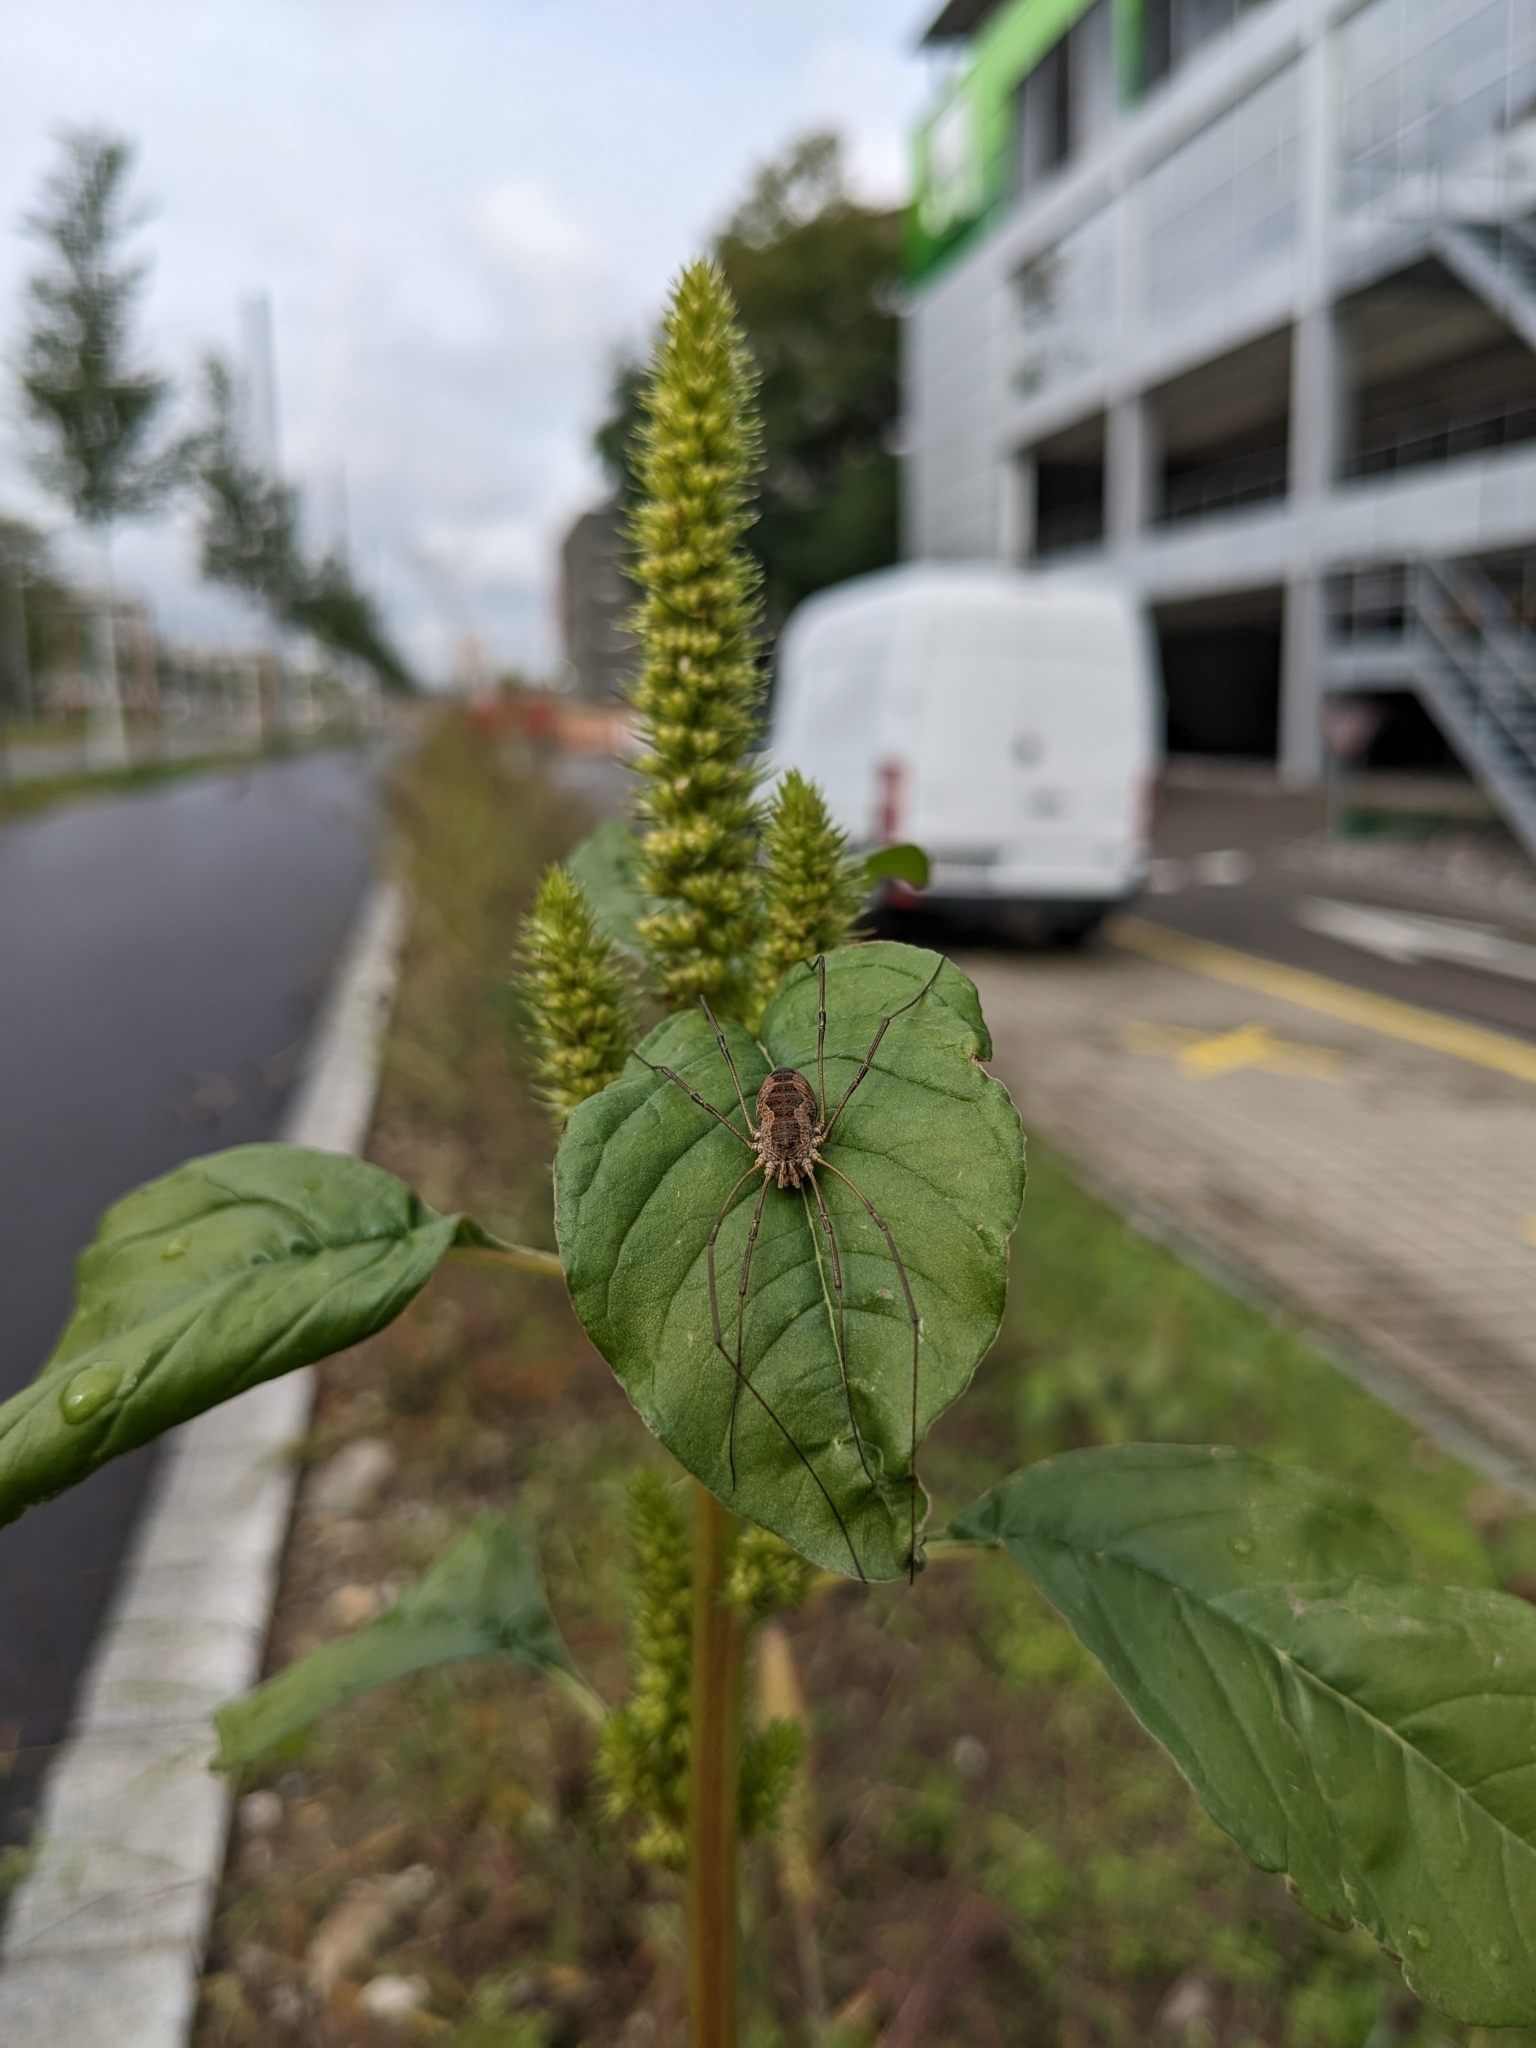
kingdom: Animalia
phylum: Arthropoda
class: Arachnida
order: Opiliones
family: Phalangiidae
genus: Phalangium
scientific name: Phalangium opilio
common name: Daddy longleg
